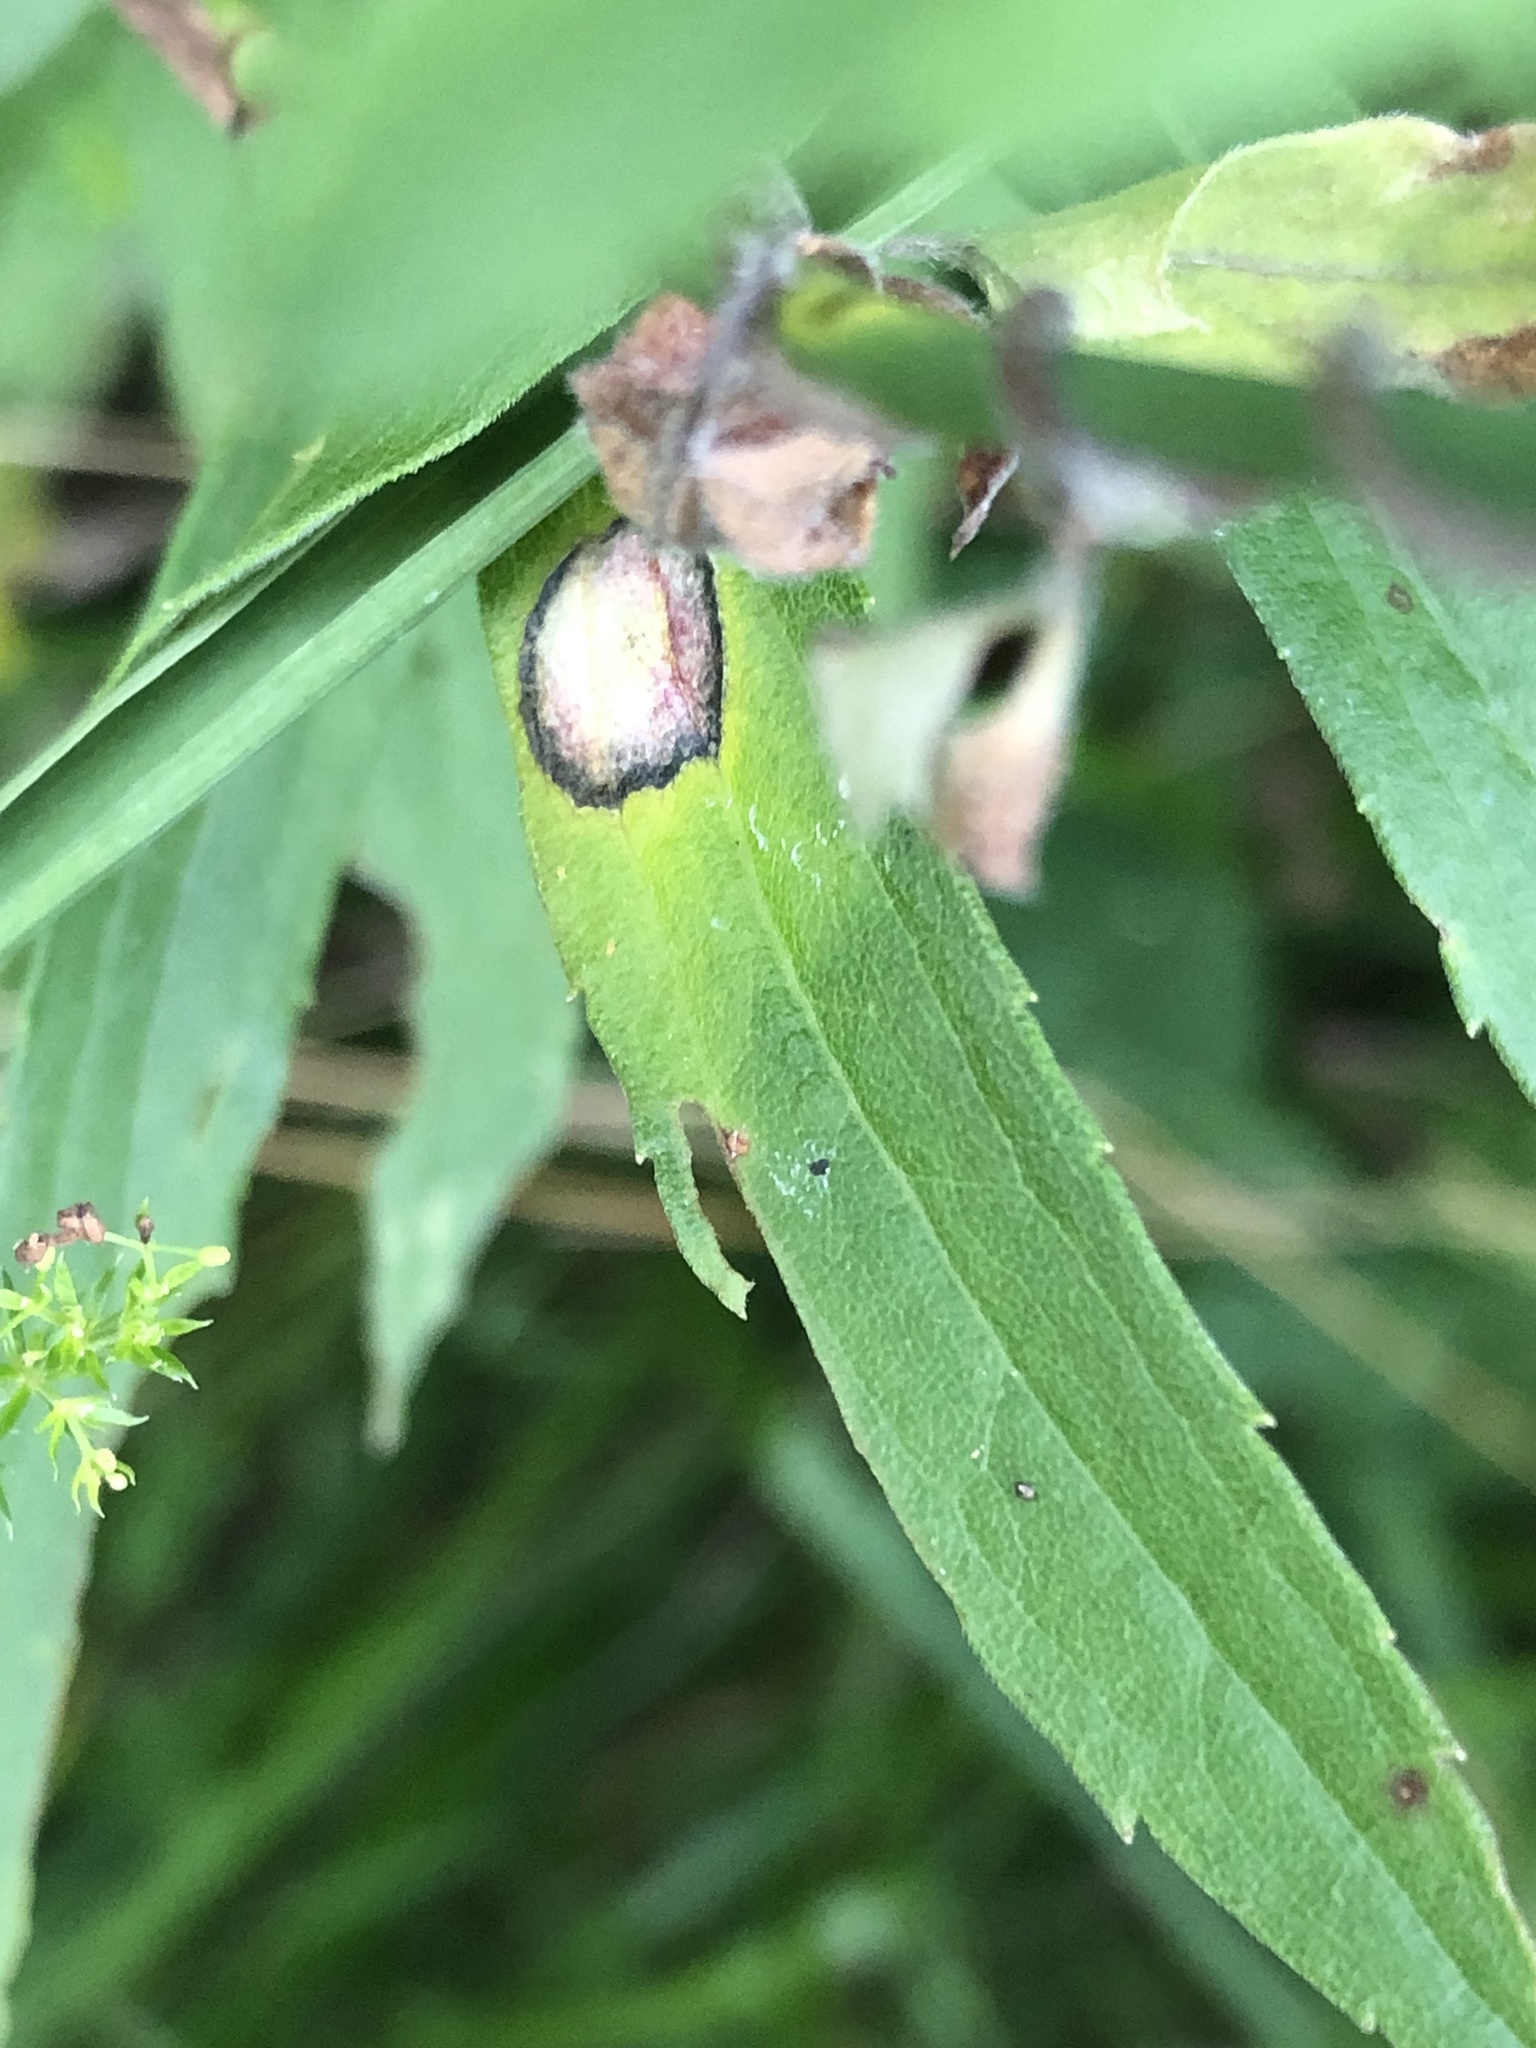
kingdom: Animalia
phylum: Arthropoda
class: Insecta
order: Diptera
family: Cecidomyiidae
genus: Asteromyia
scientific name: Asteromyia carbonifera
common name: Carbonifera goldenrod gall midge
